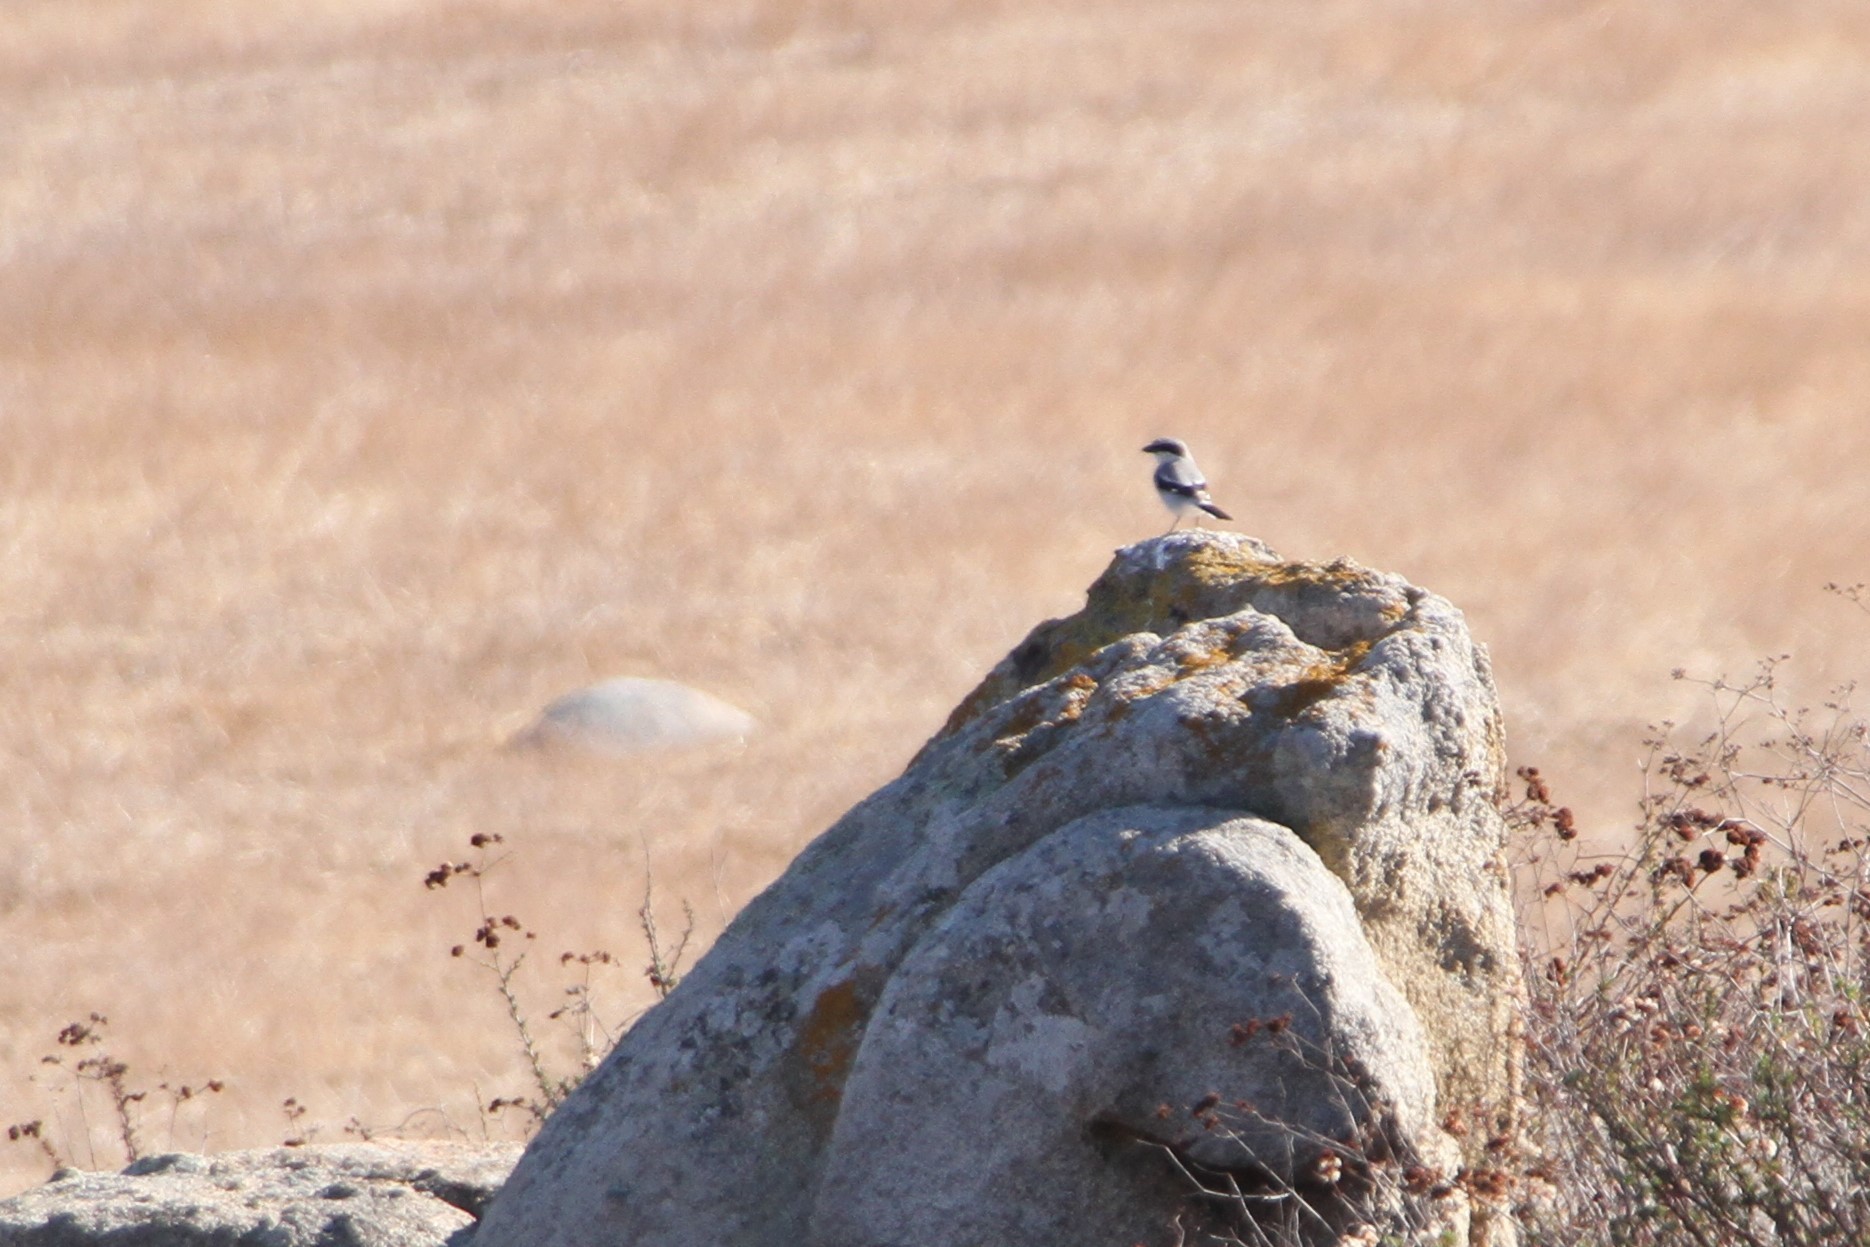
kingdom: Animalia
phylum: Chordata
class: Aves
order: Passeriformes
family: Laniidae
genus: Lanius
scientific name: Lanius ludovicianus
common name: Loggerhead shrike
